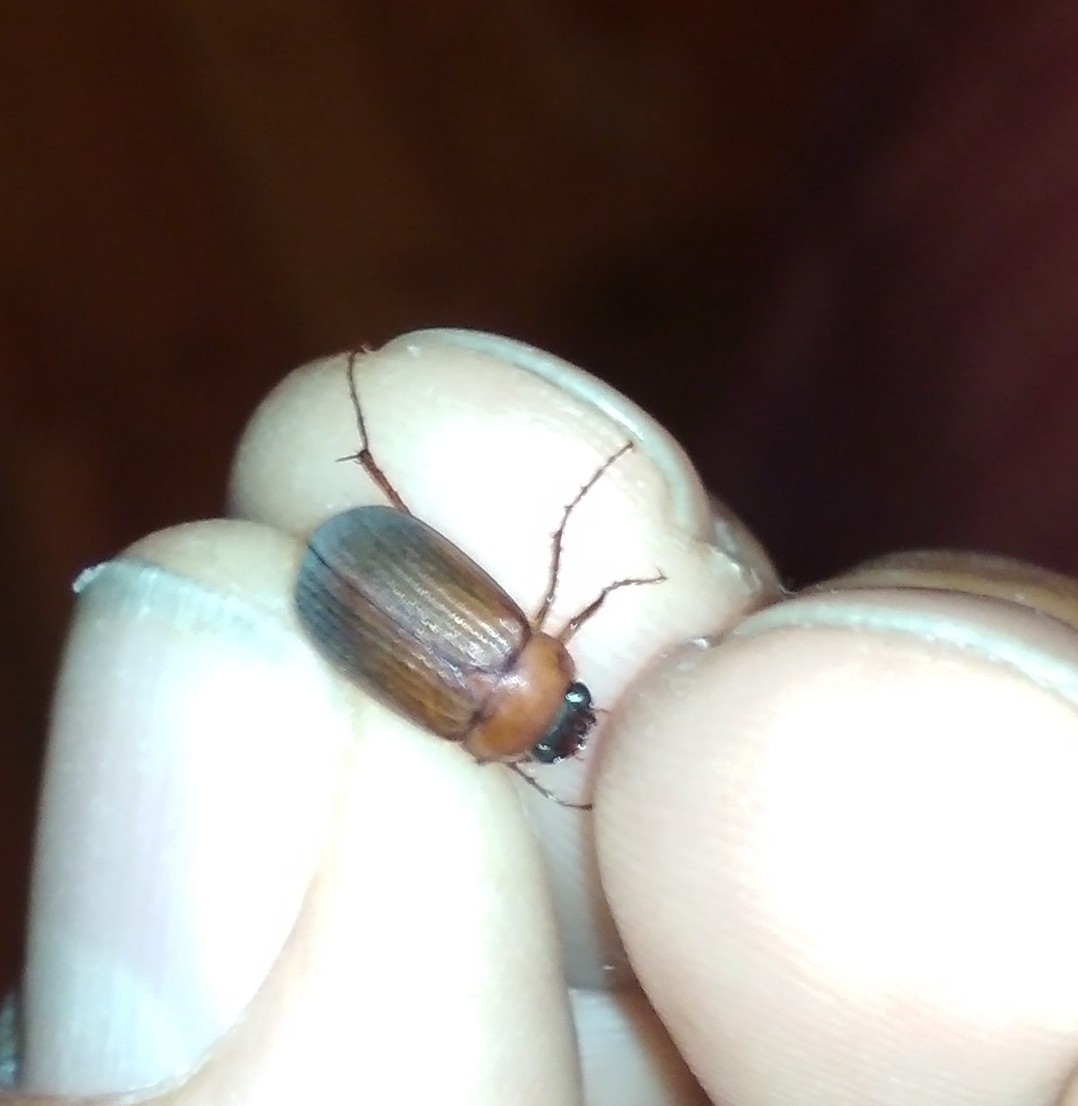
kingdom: Animalia
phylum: Arthropoda
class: Insecta
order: Coleoptera
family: Scarabaeidae
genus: Serica
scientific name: Serica brunnea
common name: Brown chafer
